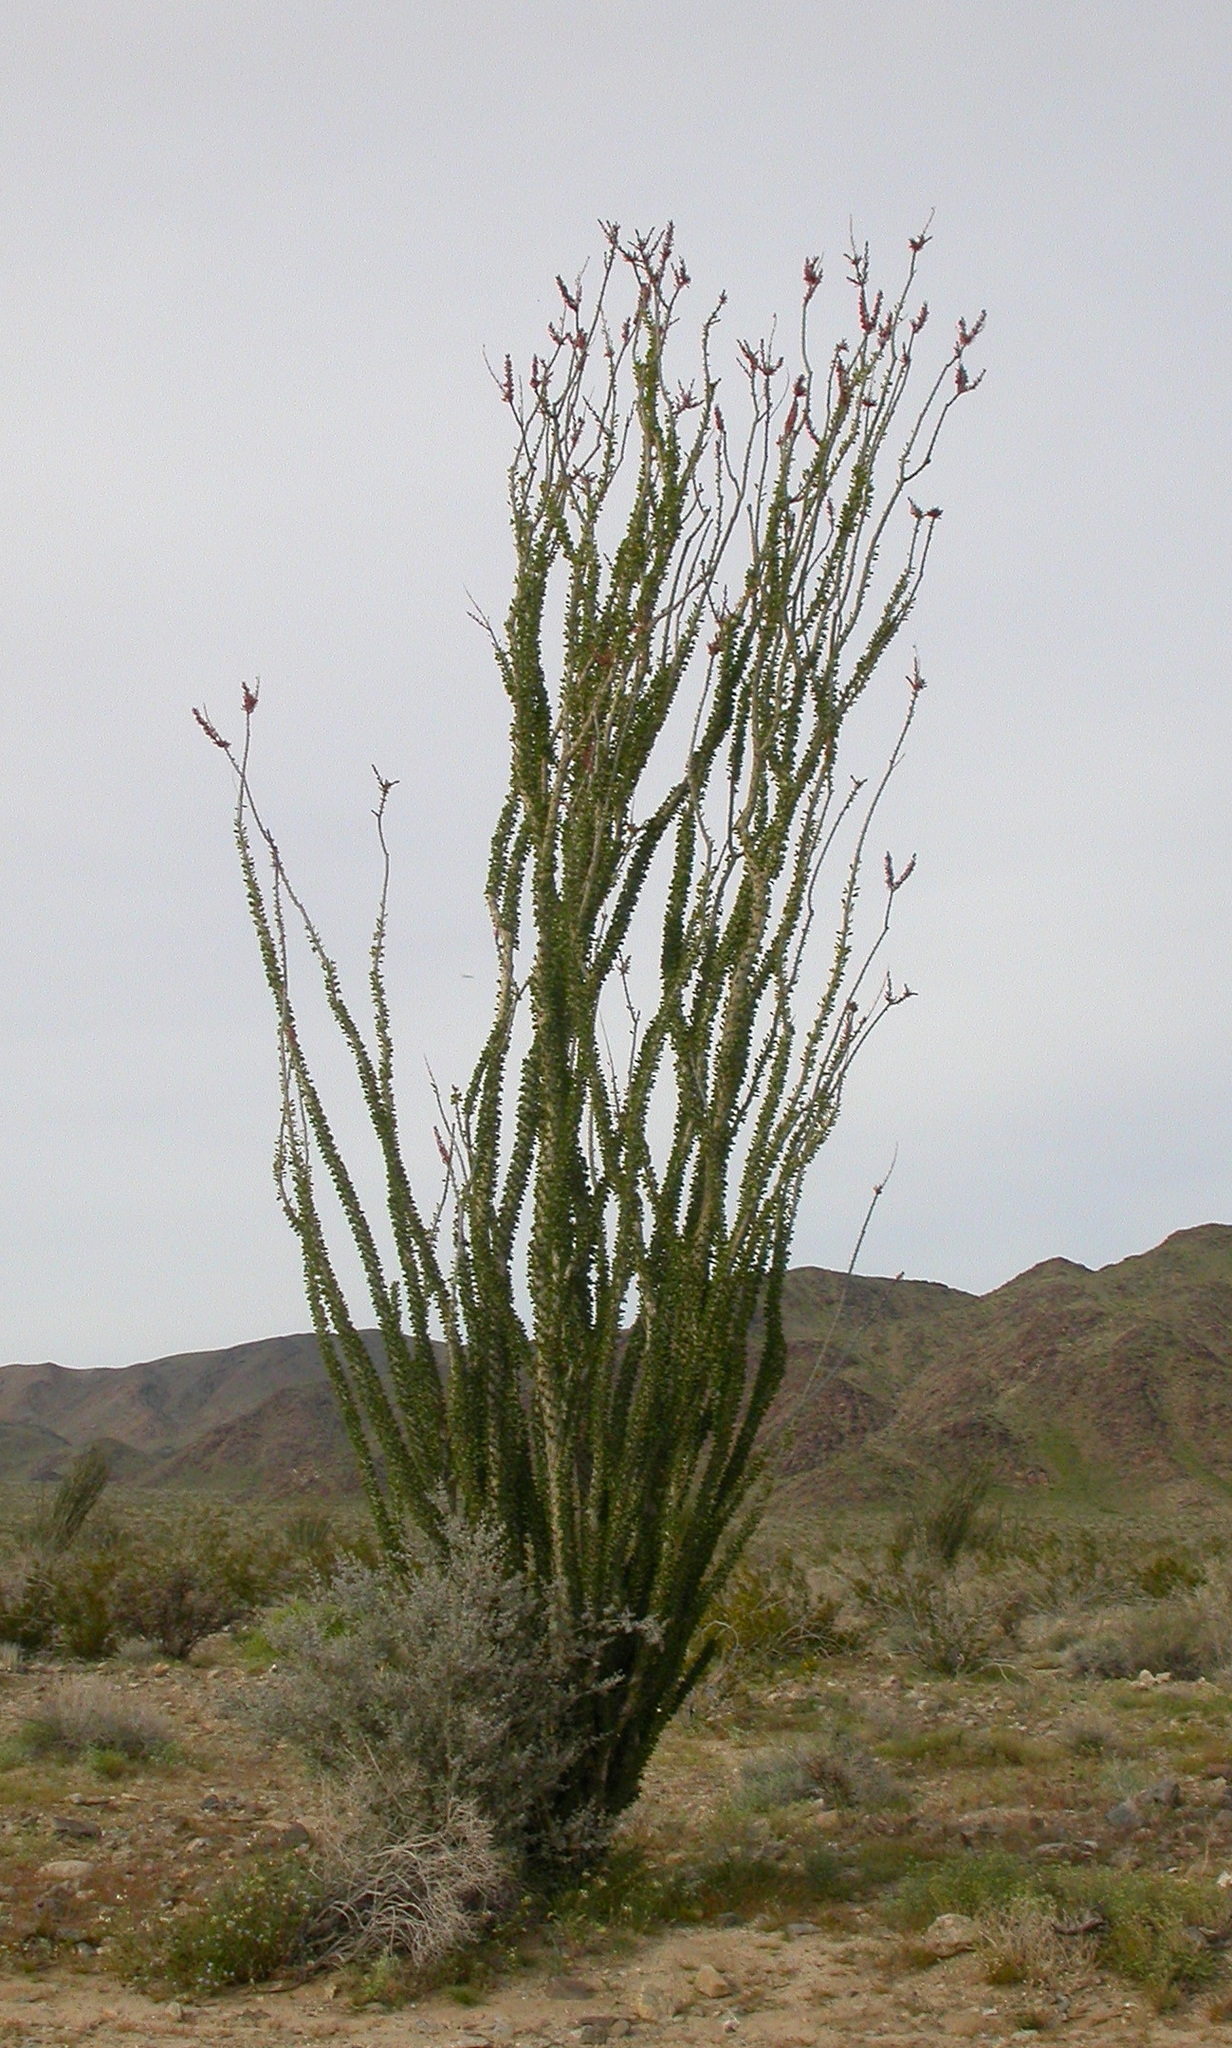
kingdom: Plantae
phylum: Tracheophyta
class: Magnoliopsida
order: Ericales
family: Fouquieriaceae
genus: Fouquieria
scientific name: Fouquieria splendens
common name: Vine-cactus
